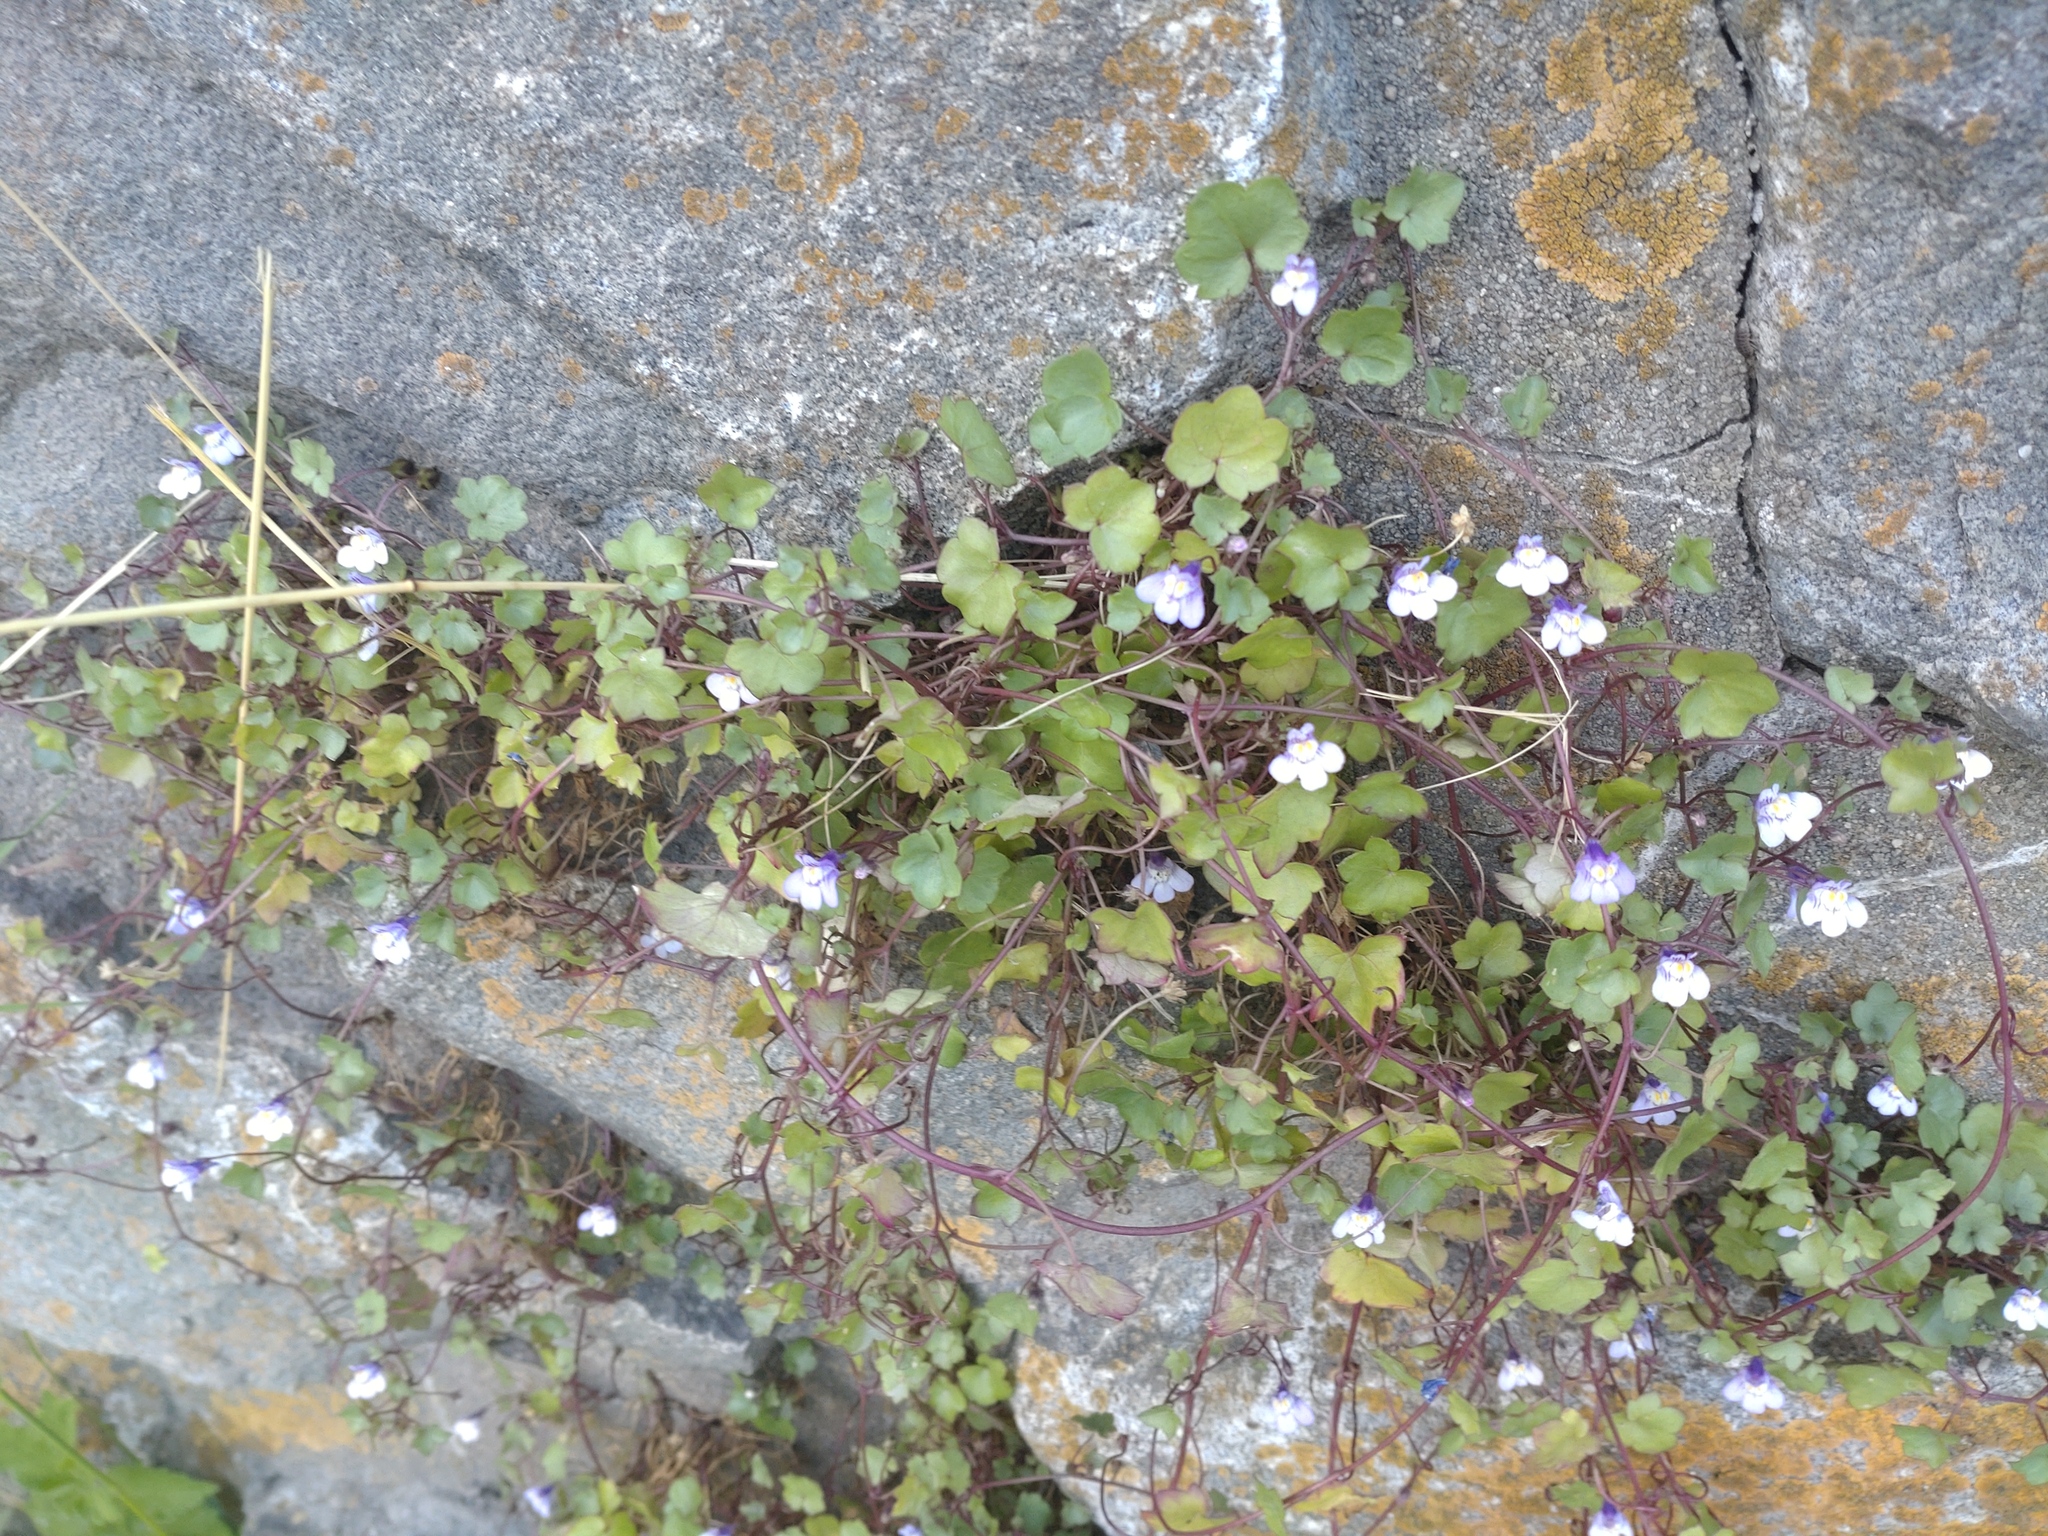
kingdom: Plantae
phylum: Tracheophyta
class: Magnoliopsida
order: Lamiales
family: Plantaginaceae
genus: Cymbalaria
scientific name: Cymbalaria muralis
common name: Ivy-leaved toadflax
